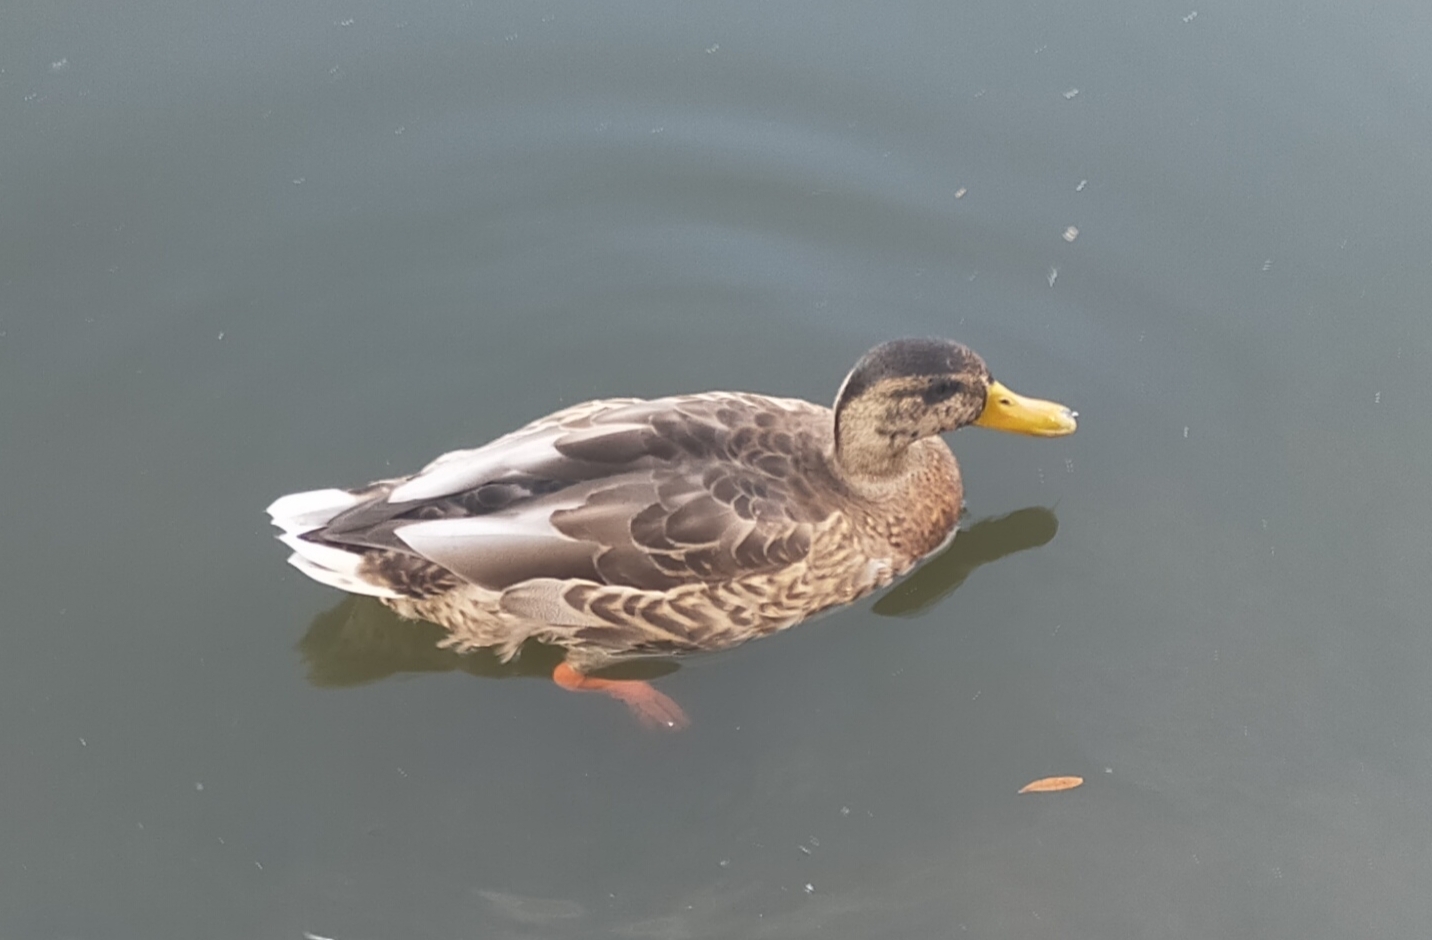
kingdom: Animalia
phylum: Chordata
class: Aves
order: Anseriformes
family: Anatidae
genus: Anas
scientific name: Anas platyrhynchos
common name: Mallard
